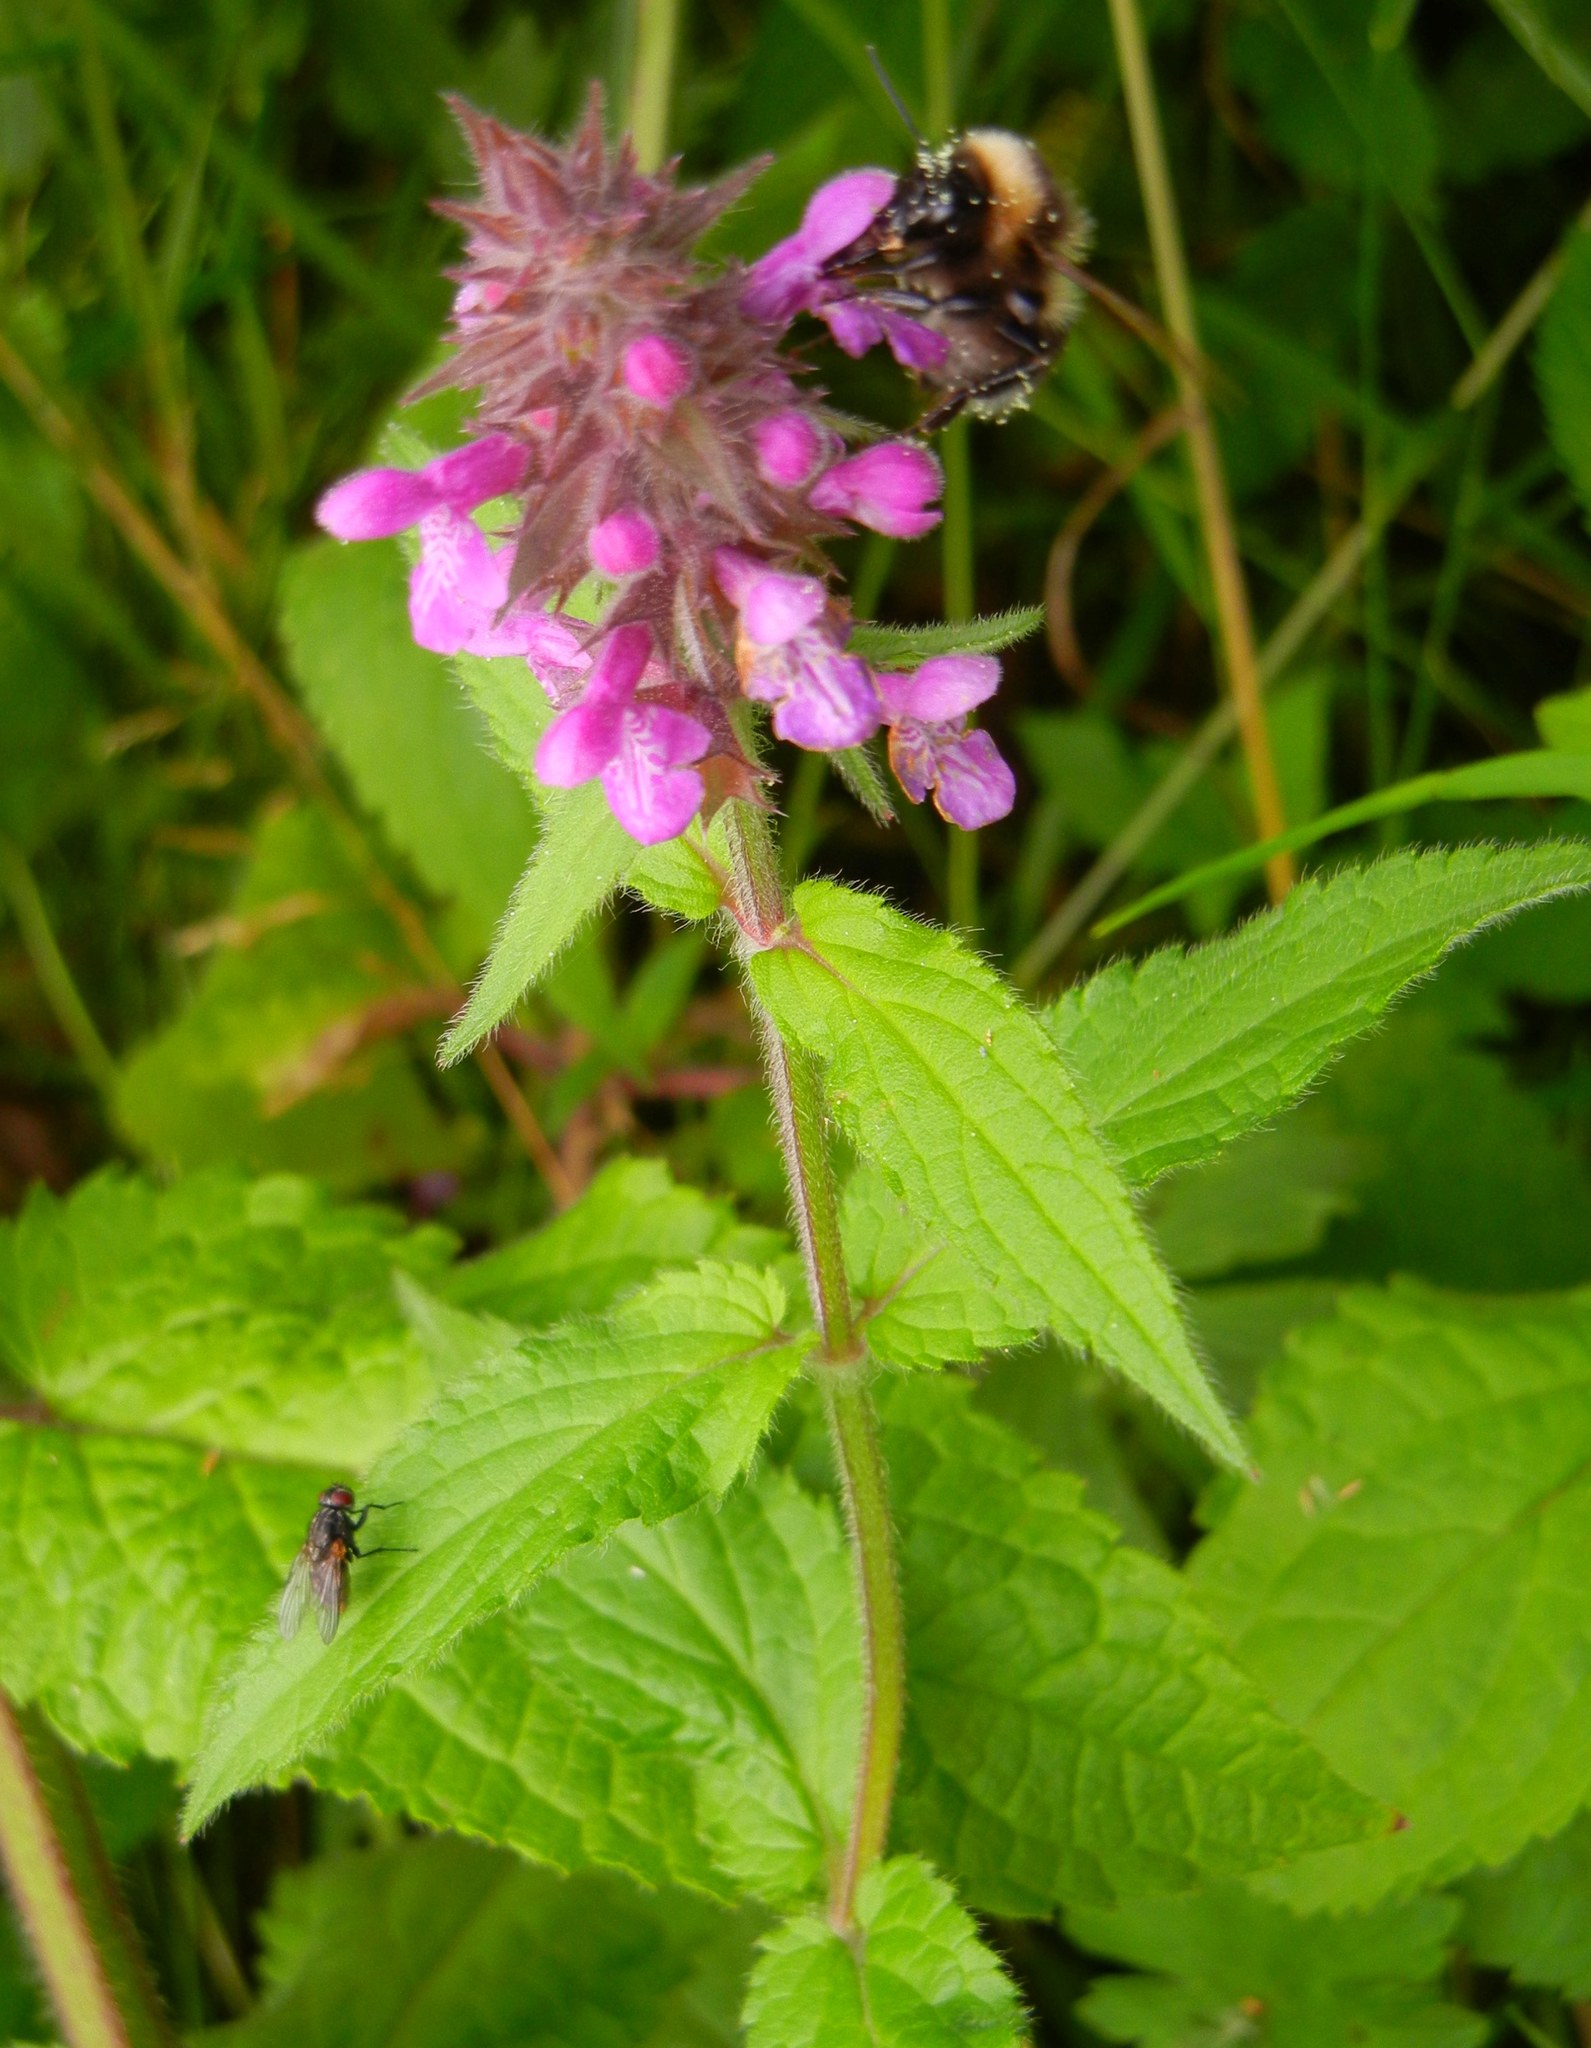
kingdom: Plantae
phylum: Tracheophyta
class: Magnoliopsida
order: Lamiales
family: Lamiaceae
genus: Stachys
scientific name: Stachys palustris
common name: Marsh woundwort
